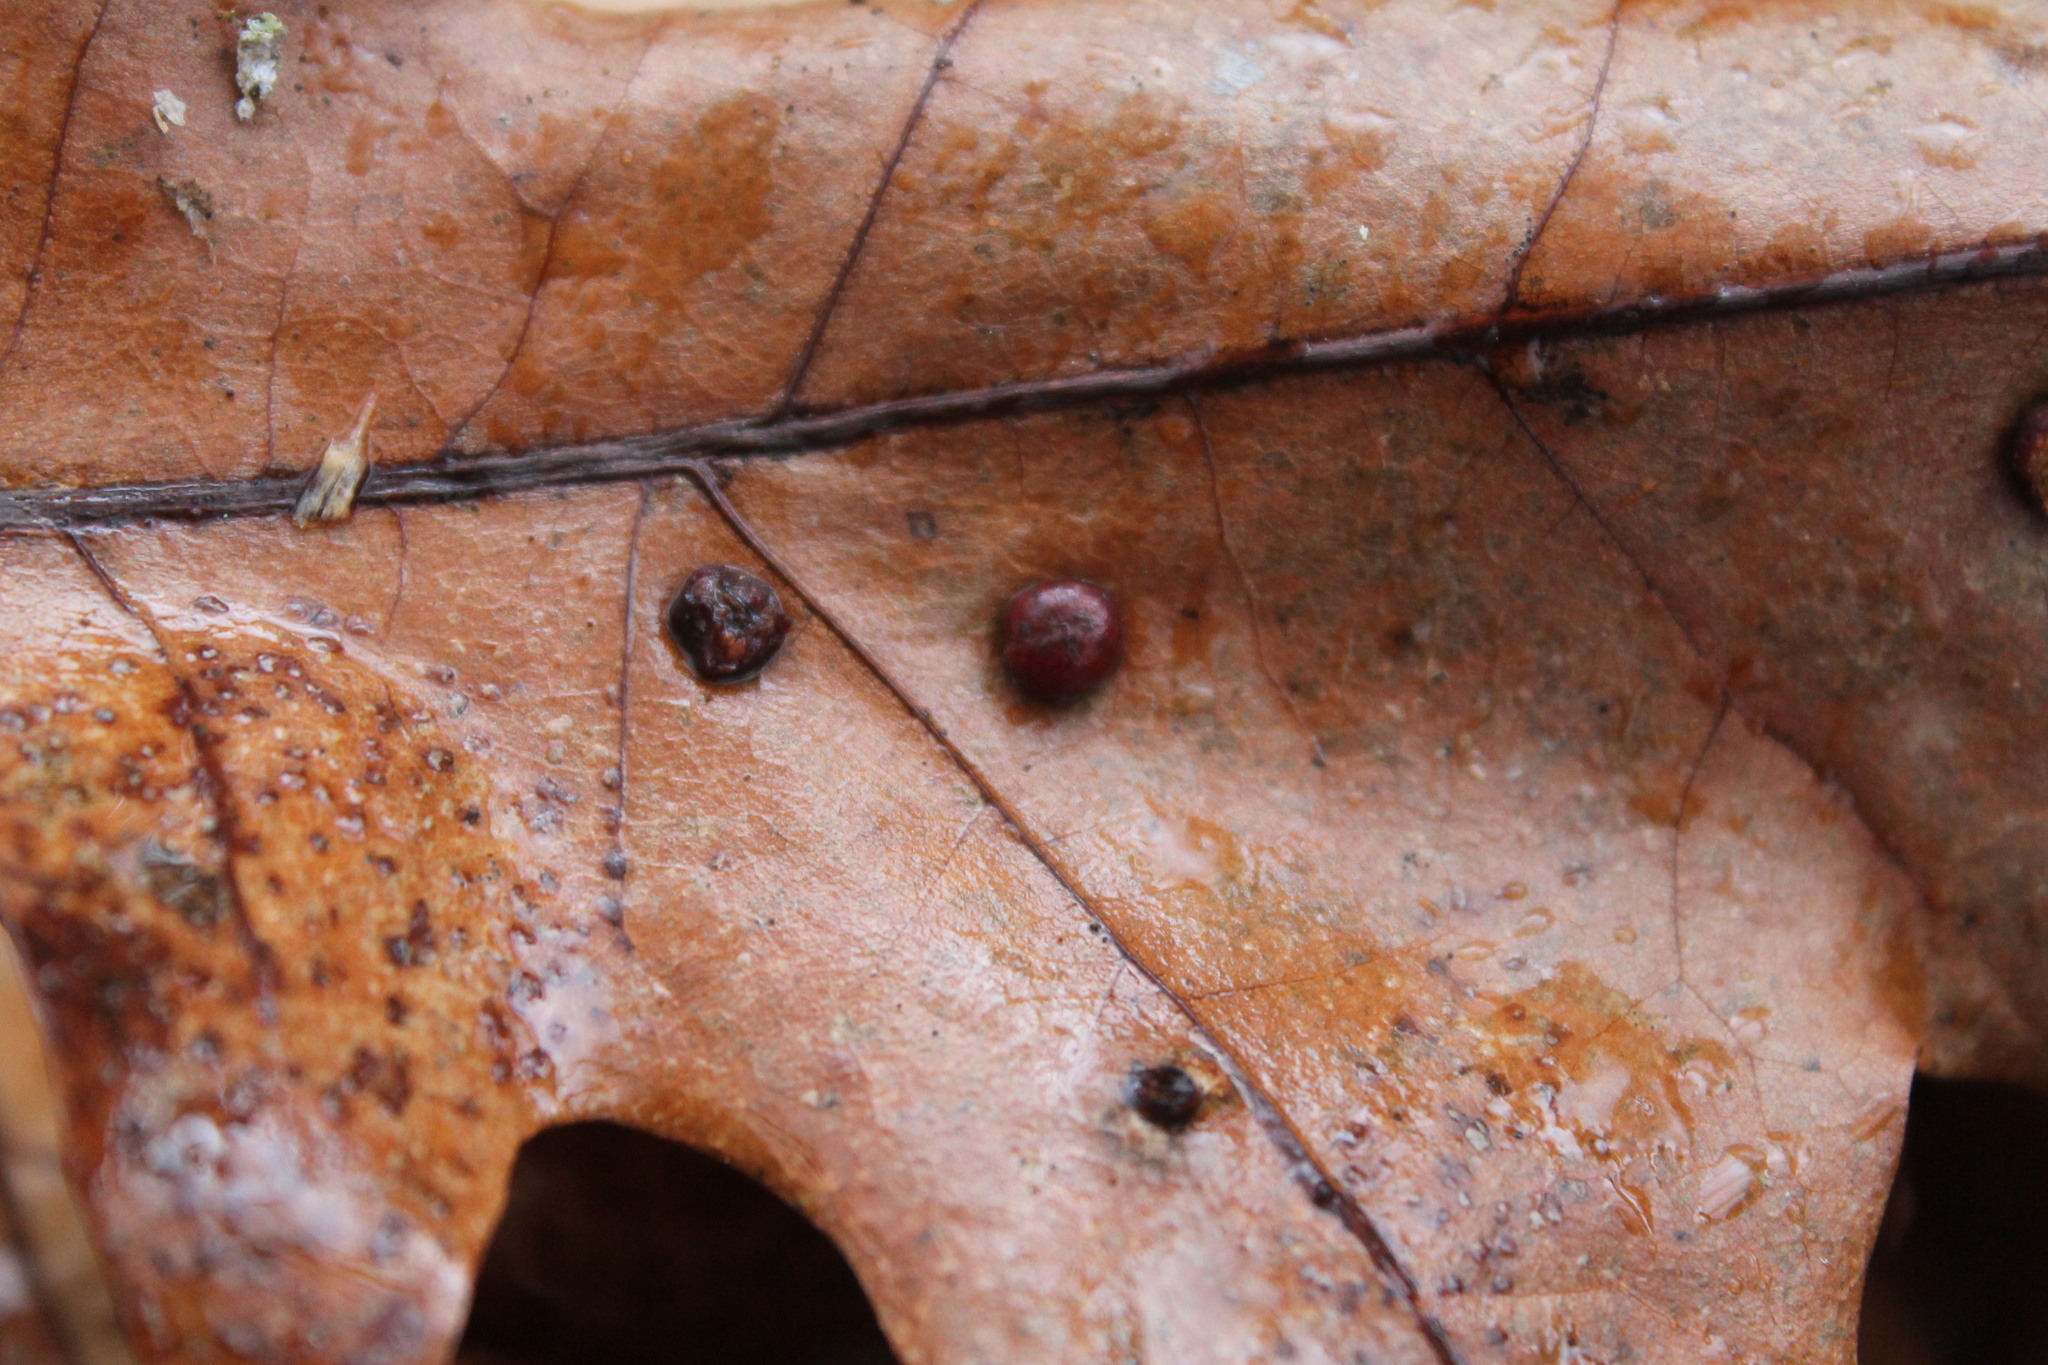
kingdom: Animalia
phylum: Arthropoda
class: Insecta
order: Diptera
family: Cecidomyiidae
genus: Polystepha
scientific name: Polystepha pilulae
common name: Oak leaf gall midge
